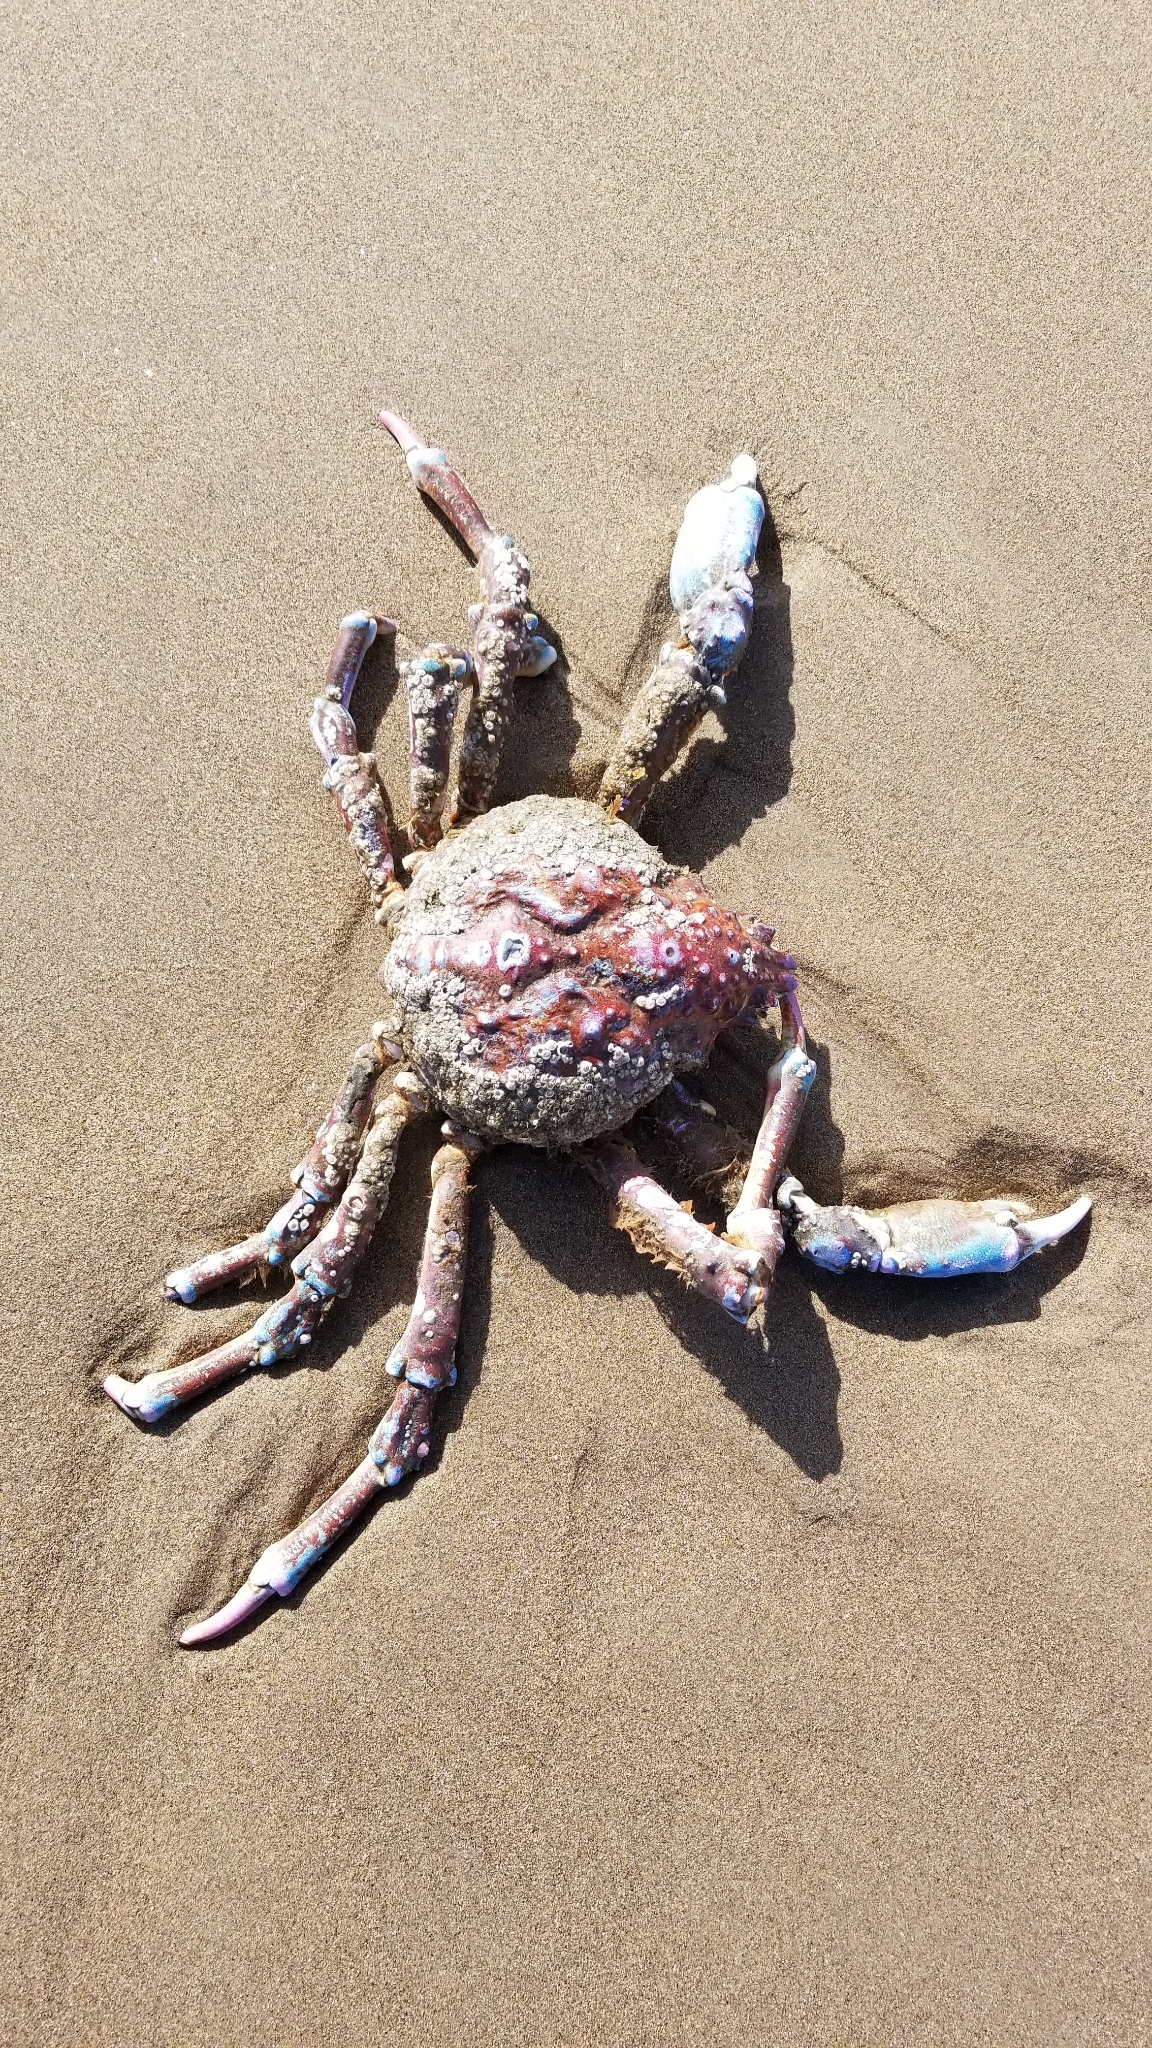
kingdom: Animalia
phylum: Arthropoda
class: Malacostraca
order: Decapoda
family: Epialtidae
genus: Loxorhynchus
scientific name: Loxorhynchus grandis
